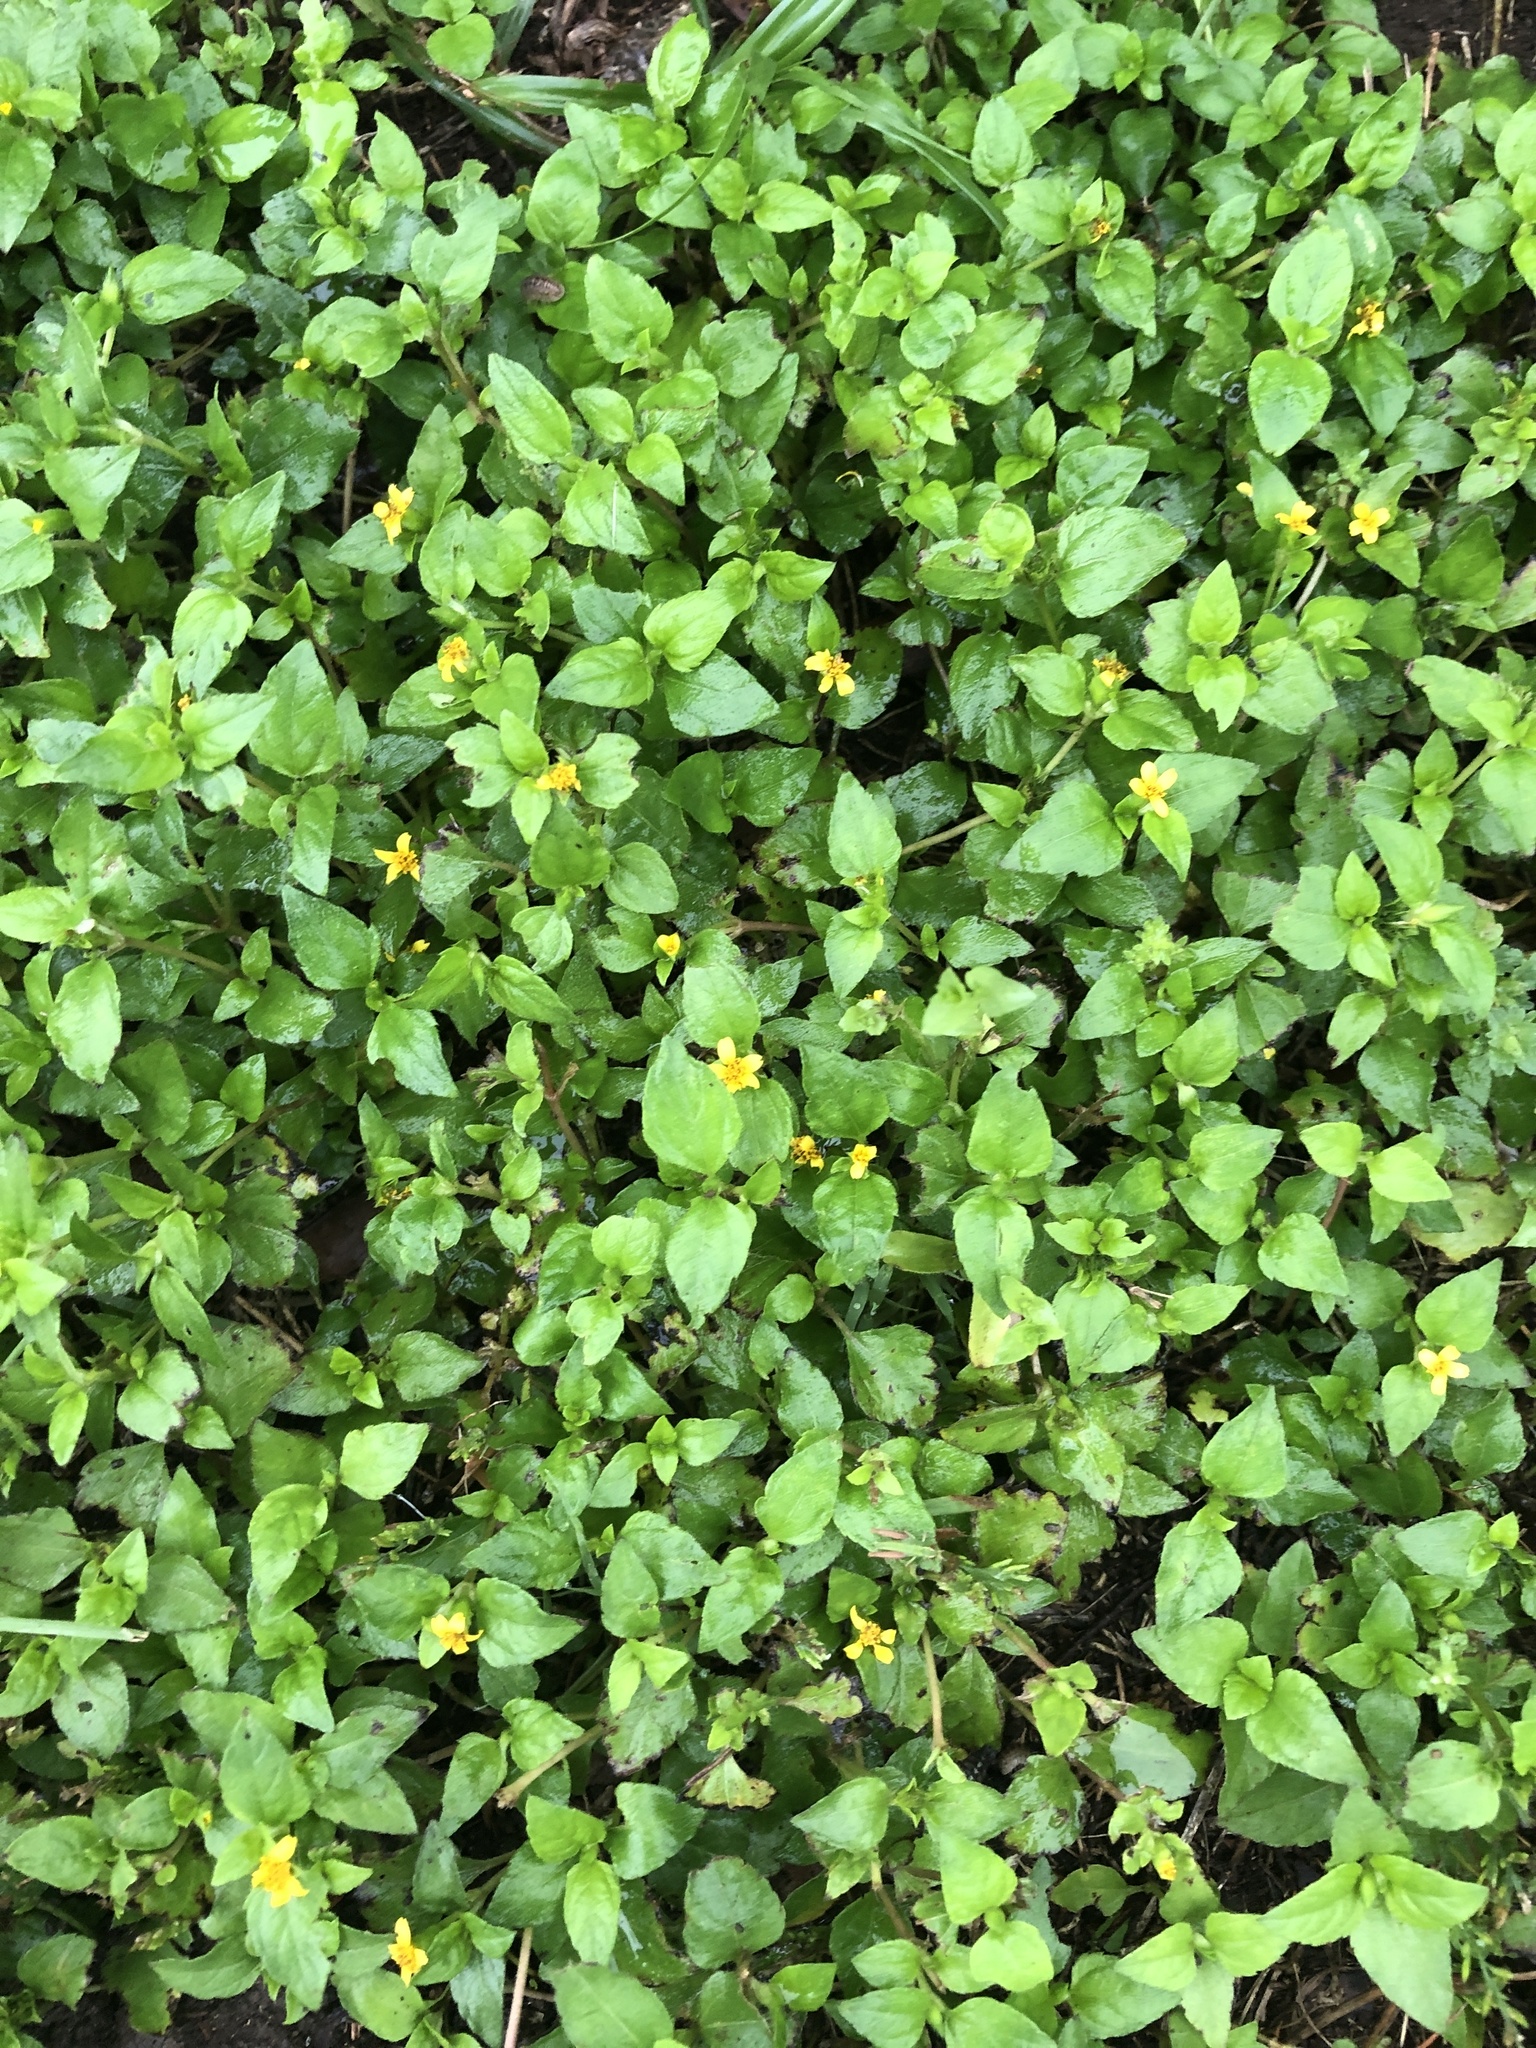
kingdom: Plantae
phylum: Tracheophyta
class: Magnoliopsida
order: Asterales
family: Asteraceae
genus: Calyptocarpus
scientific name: Calyptocarpus vialis
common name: Straggler daisy
